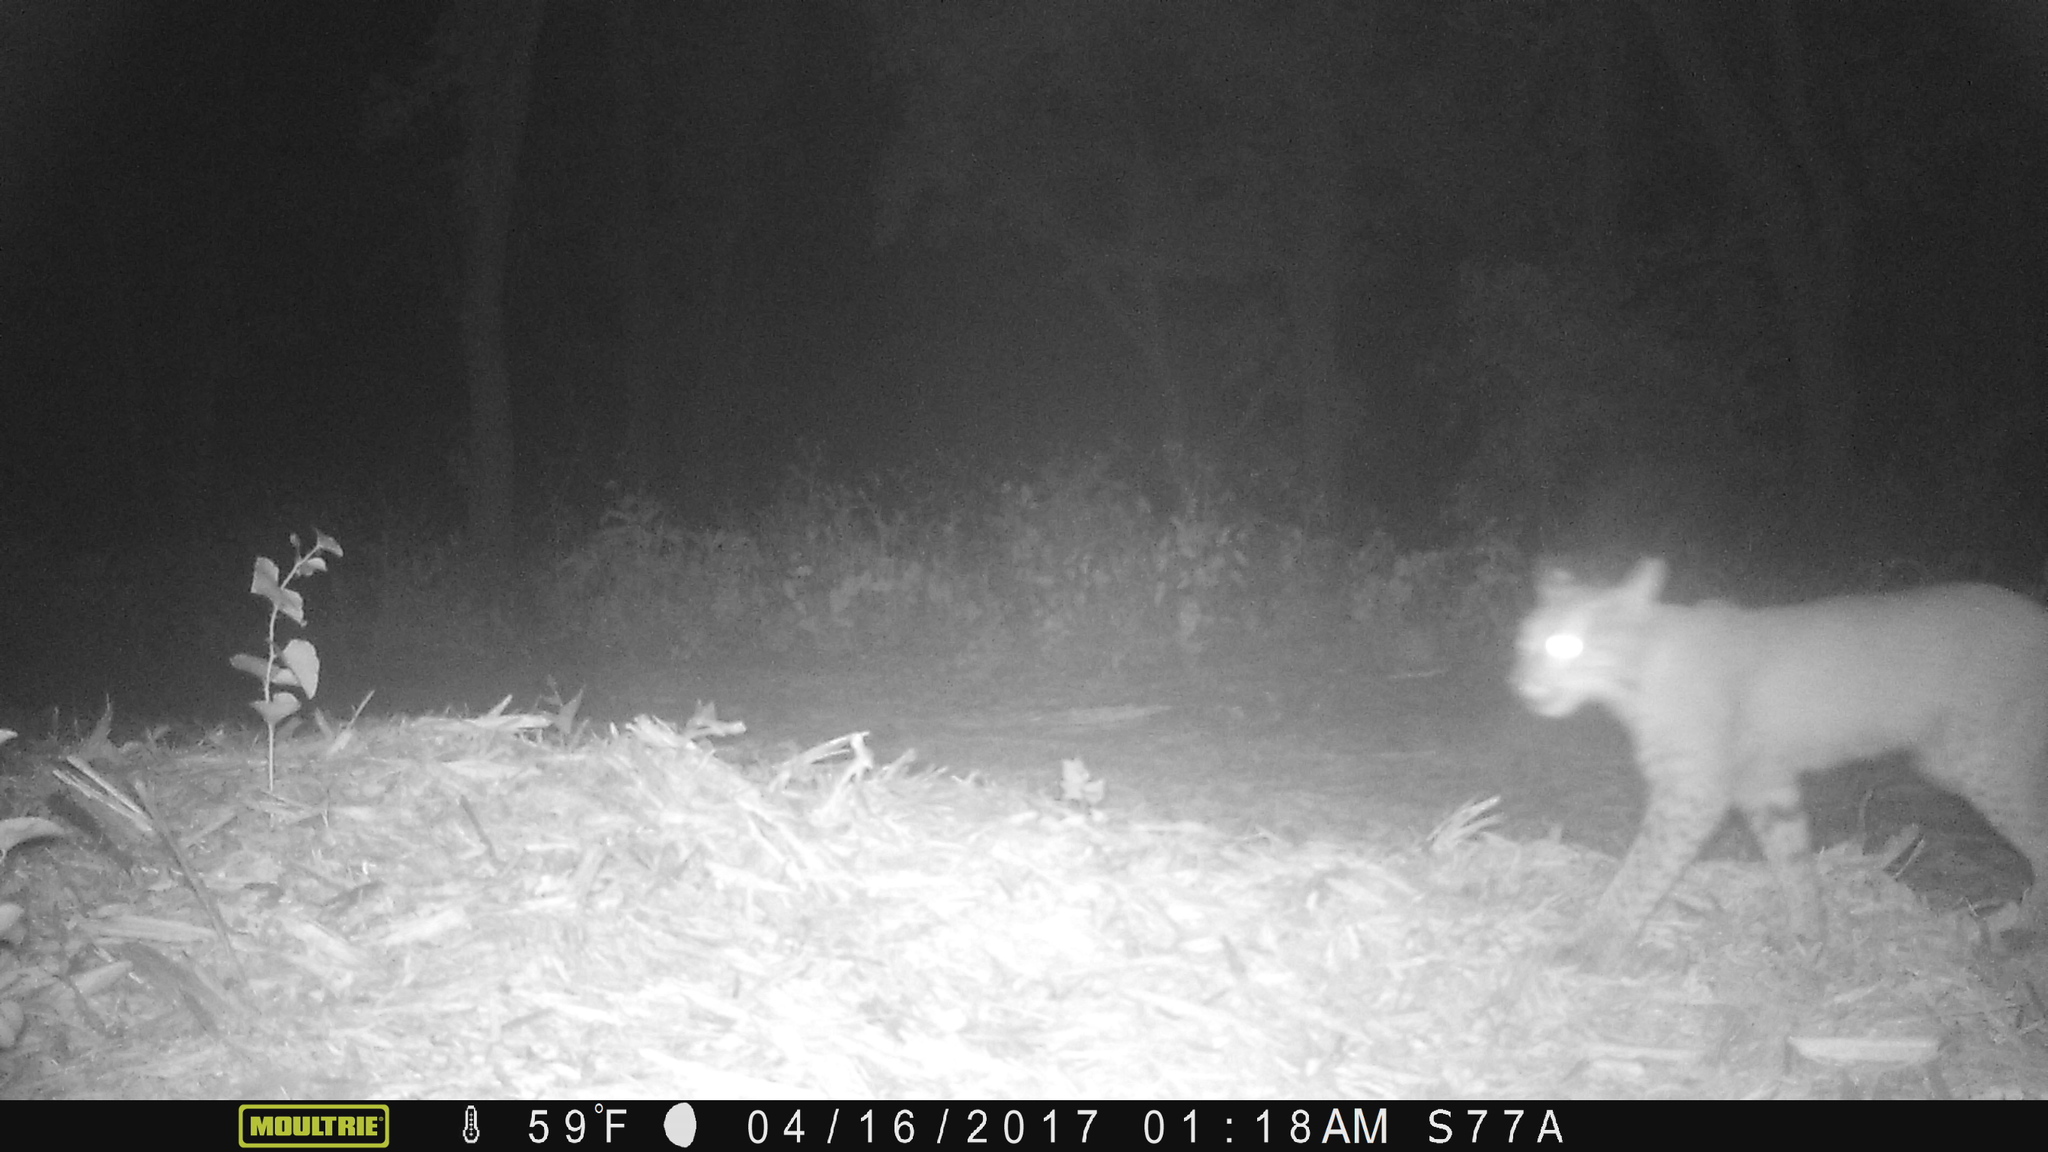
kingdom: Animalia
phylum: Chordata
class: Mammalia
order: Carnivora
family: Felidae
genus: Lynx
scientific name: Lynx rufus
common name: Bobcat
